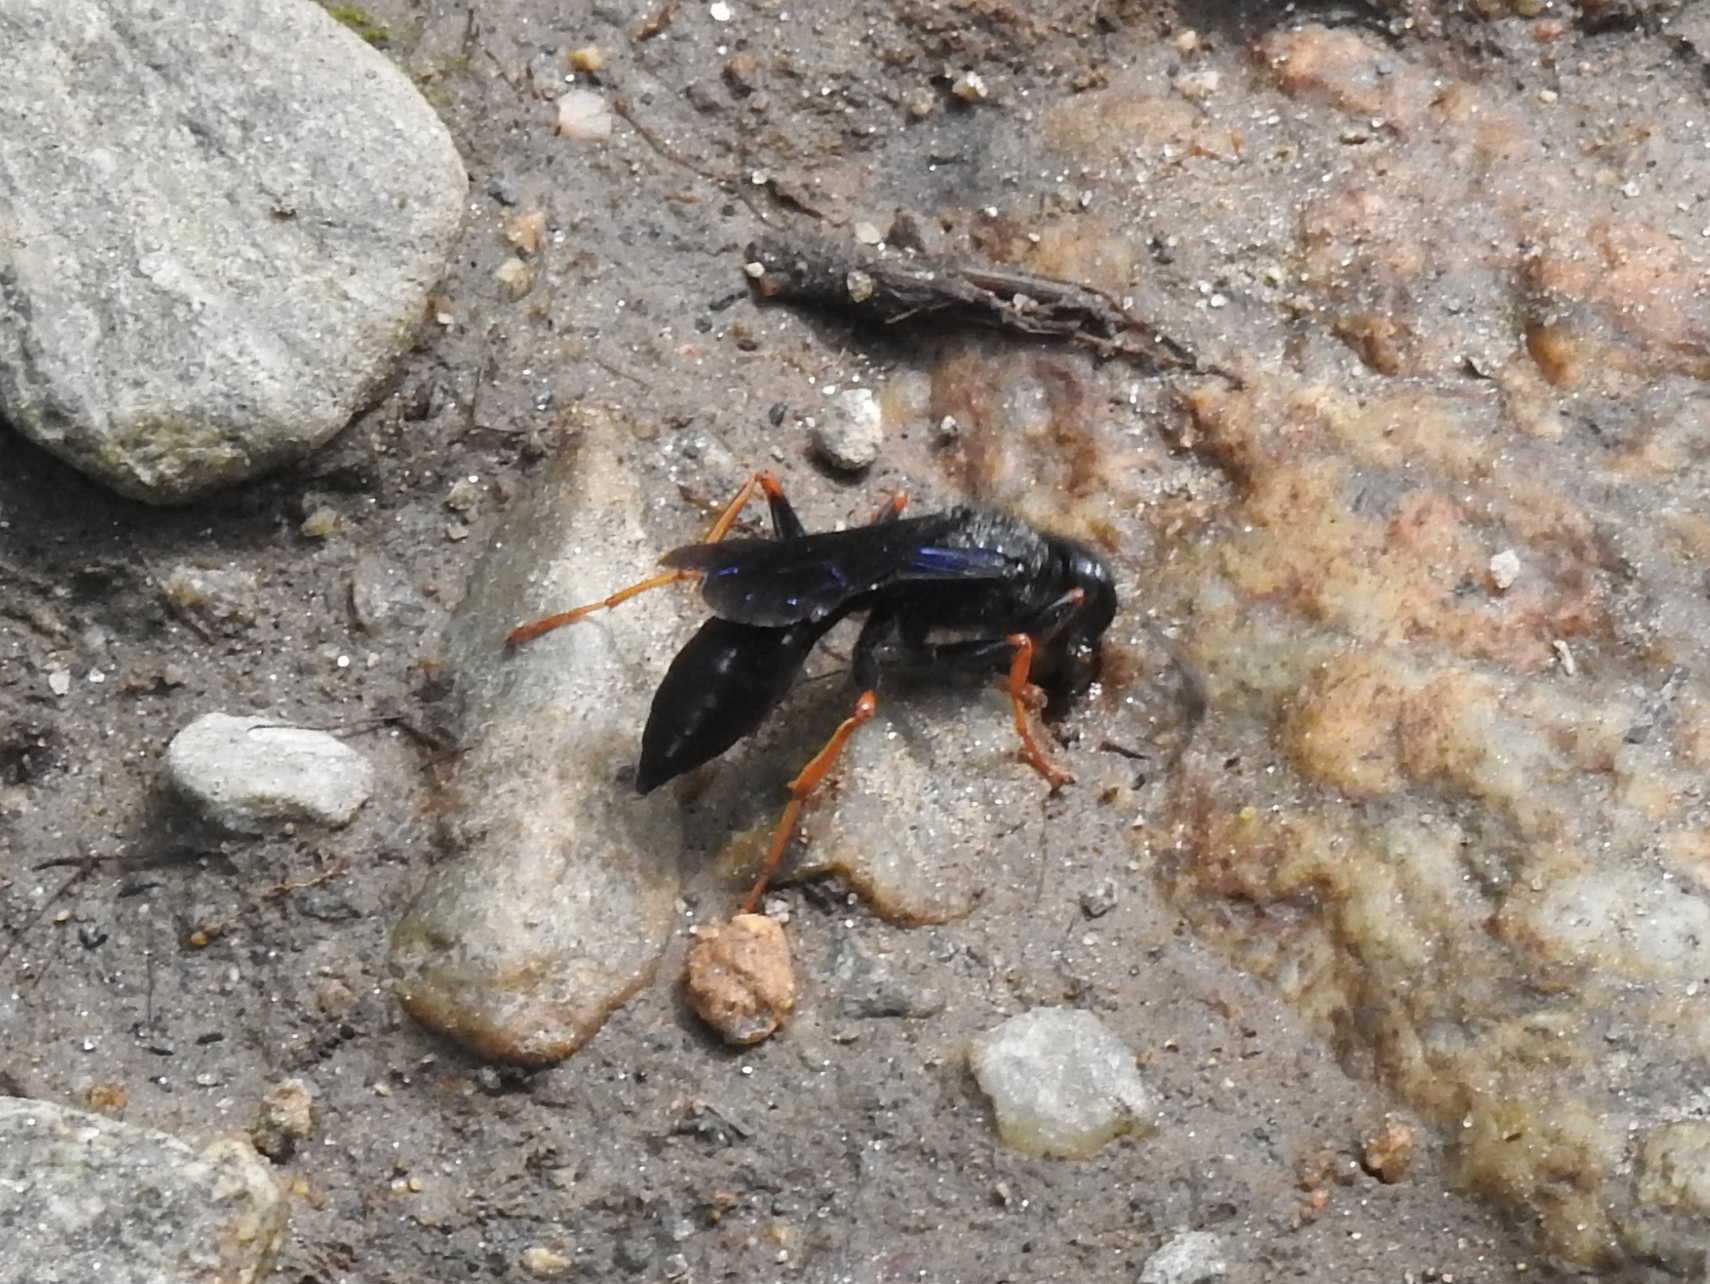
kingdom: Animalia
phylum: Arthropoda
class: Insecta
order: Hymenoptera
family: Sphecidae
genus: Podium
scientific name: Podium luctuosum
